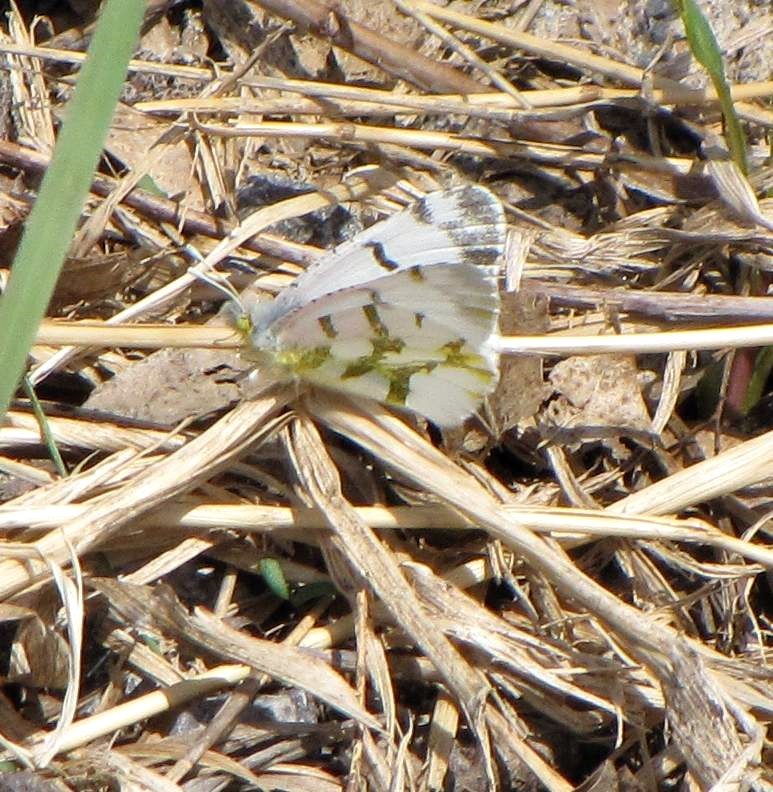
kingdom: Animalia
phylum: Arthropoda
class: Insecta
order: Lepidoptera
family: Pieridae
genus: Euchloe
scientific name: Euchloe olympia
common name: Olympia
